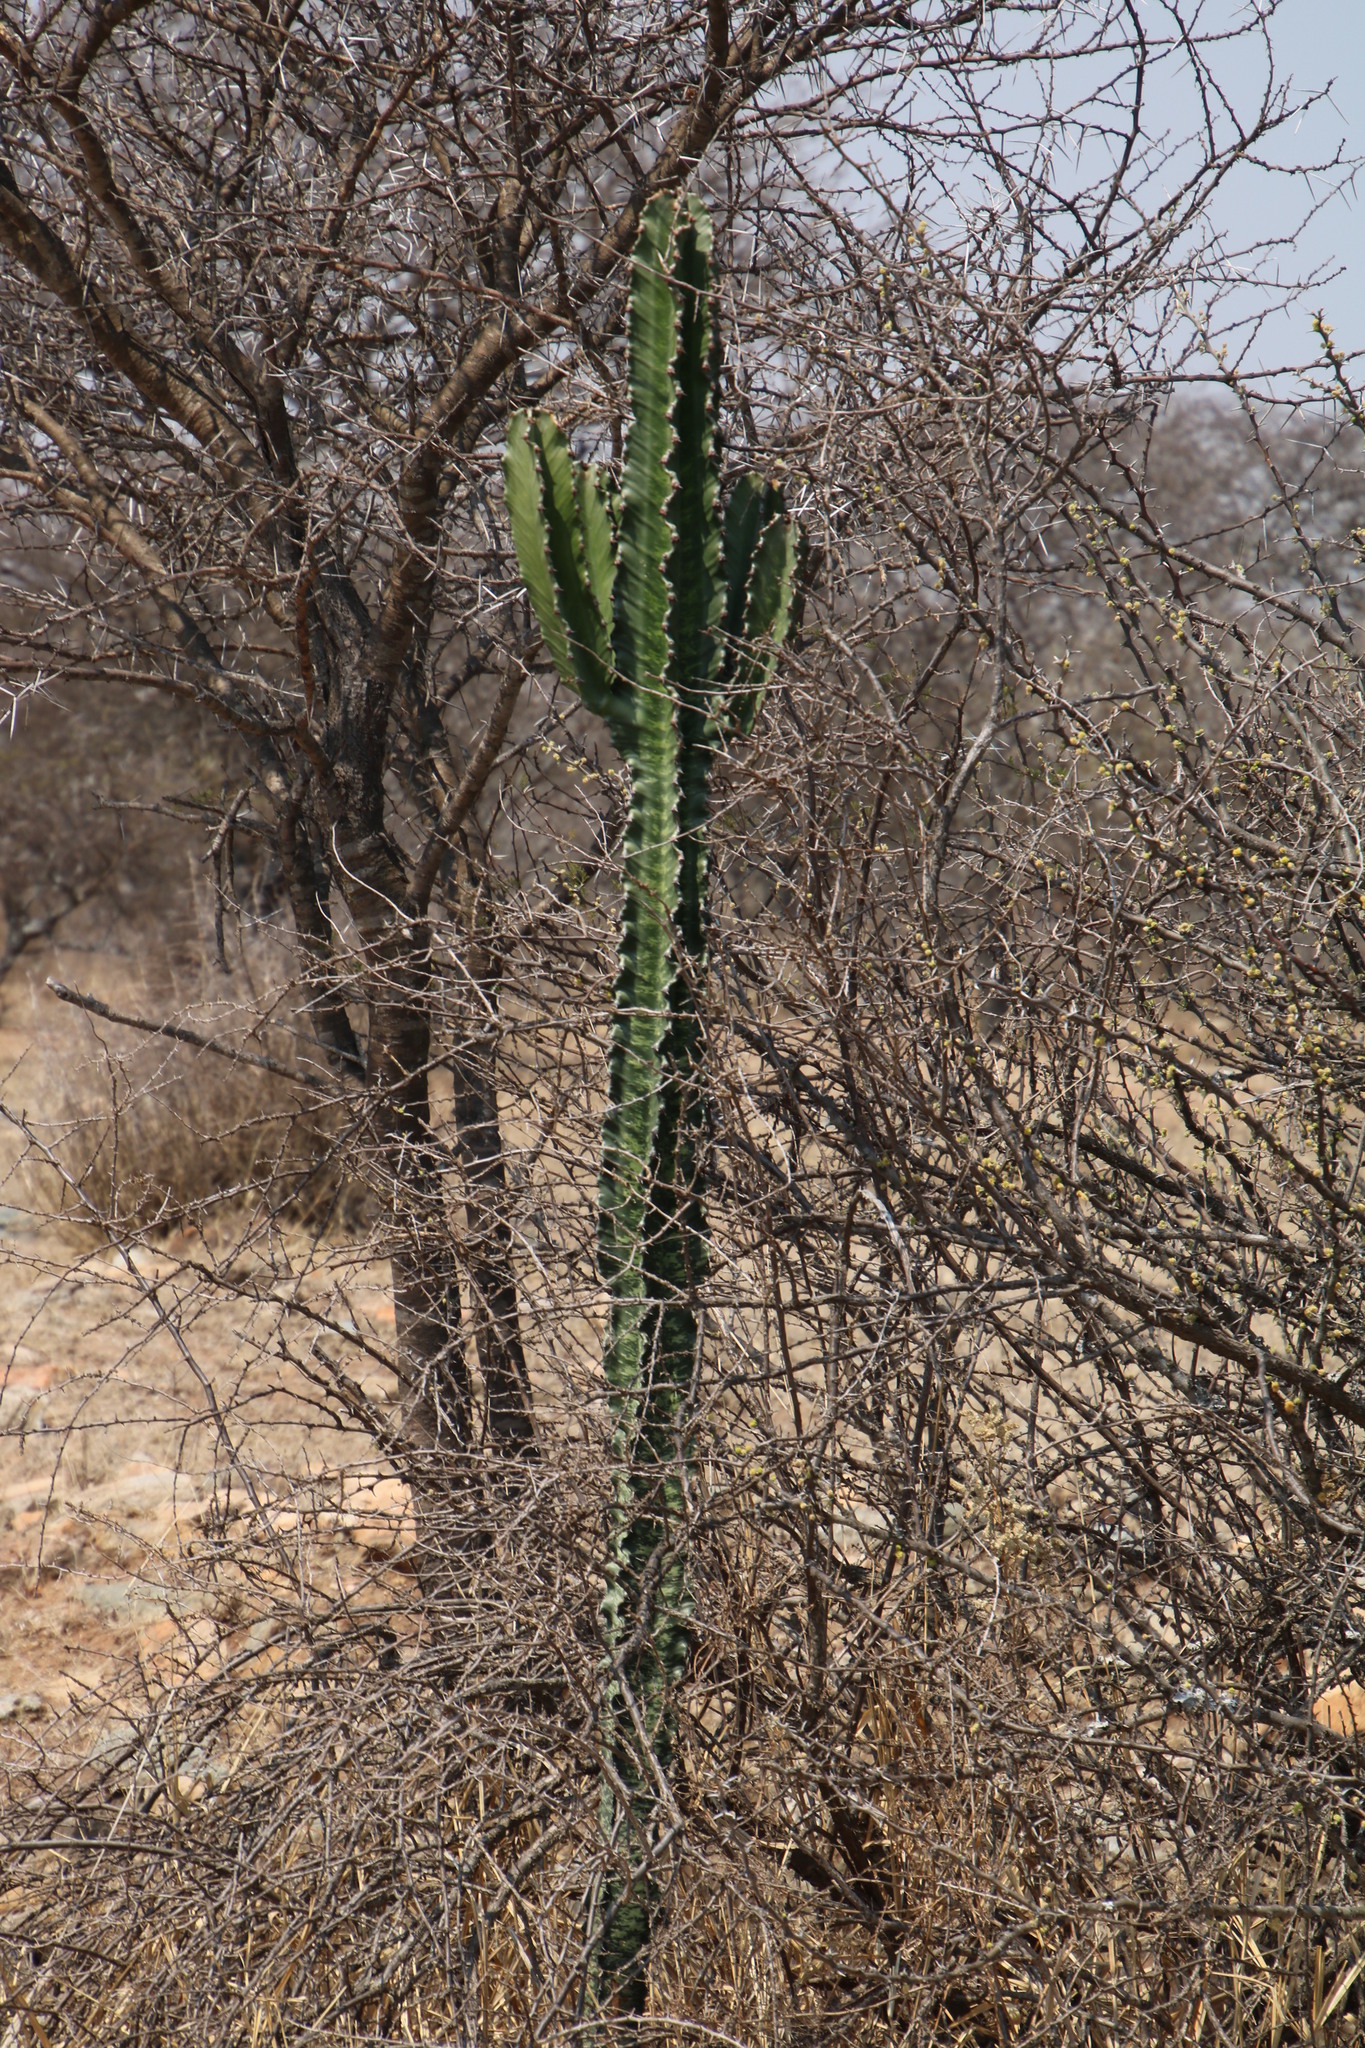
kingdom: Plantae
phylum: Tracheophyta
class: Magnoliopsida
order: Malpighiales
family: Euphorbiaceae
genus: Euphorbia
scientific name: Euphorbia ingens
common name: Cactus spurge
